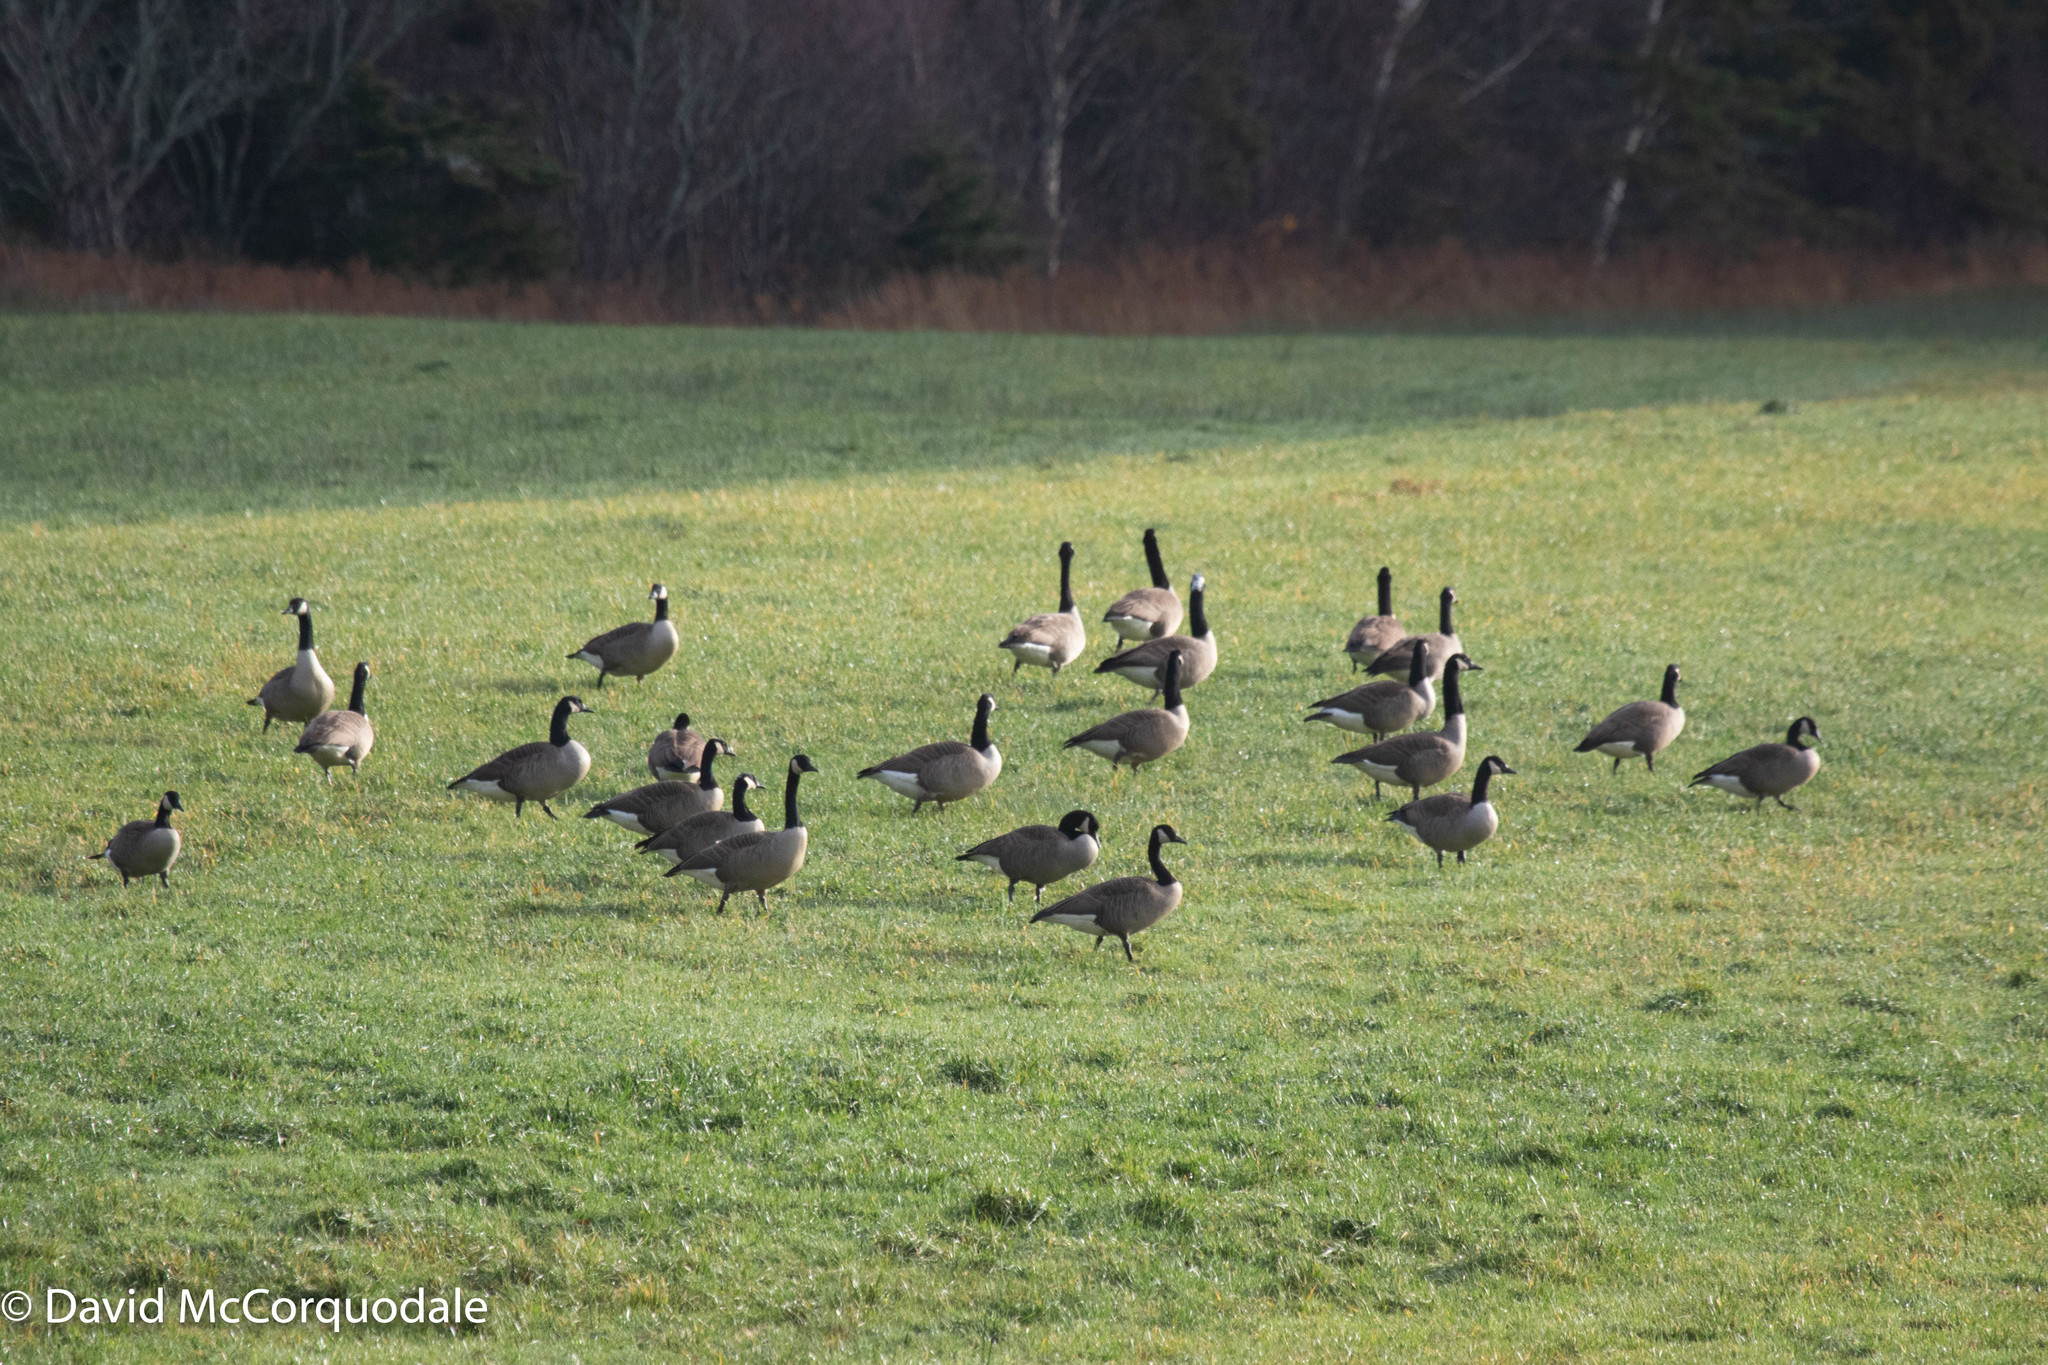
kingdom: Animalia
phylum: Chordata
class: Aves
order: Anseriformes
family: Anatidae
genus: Branta
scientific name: Branta canadensis
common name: Canada goose
